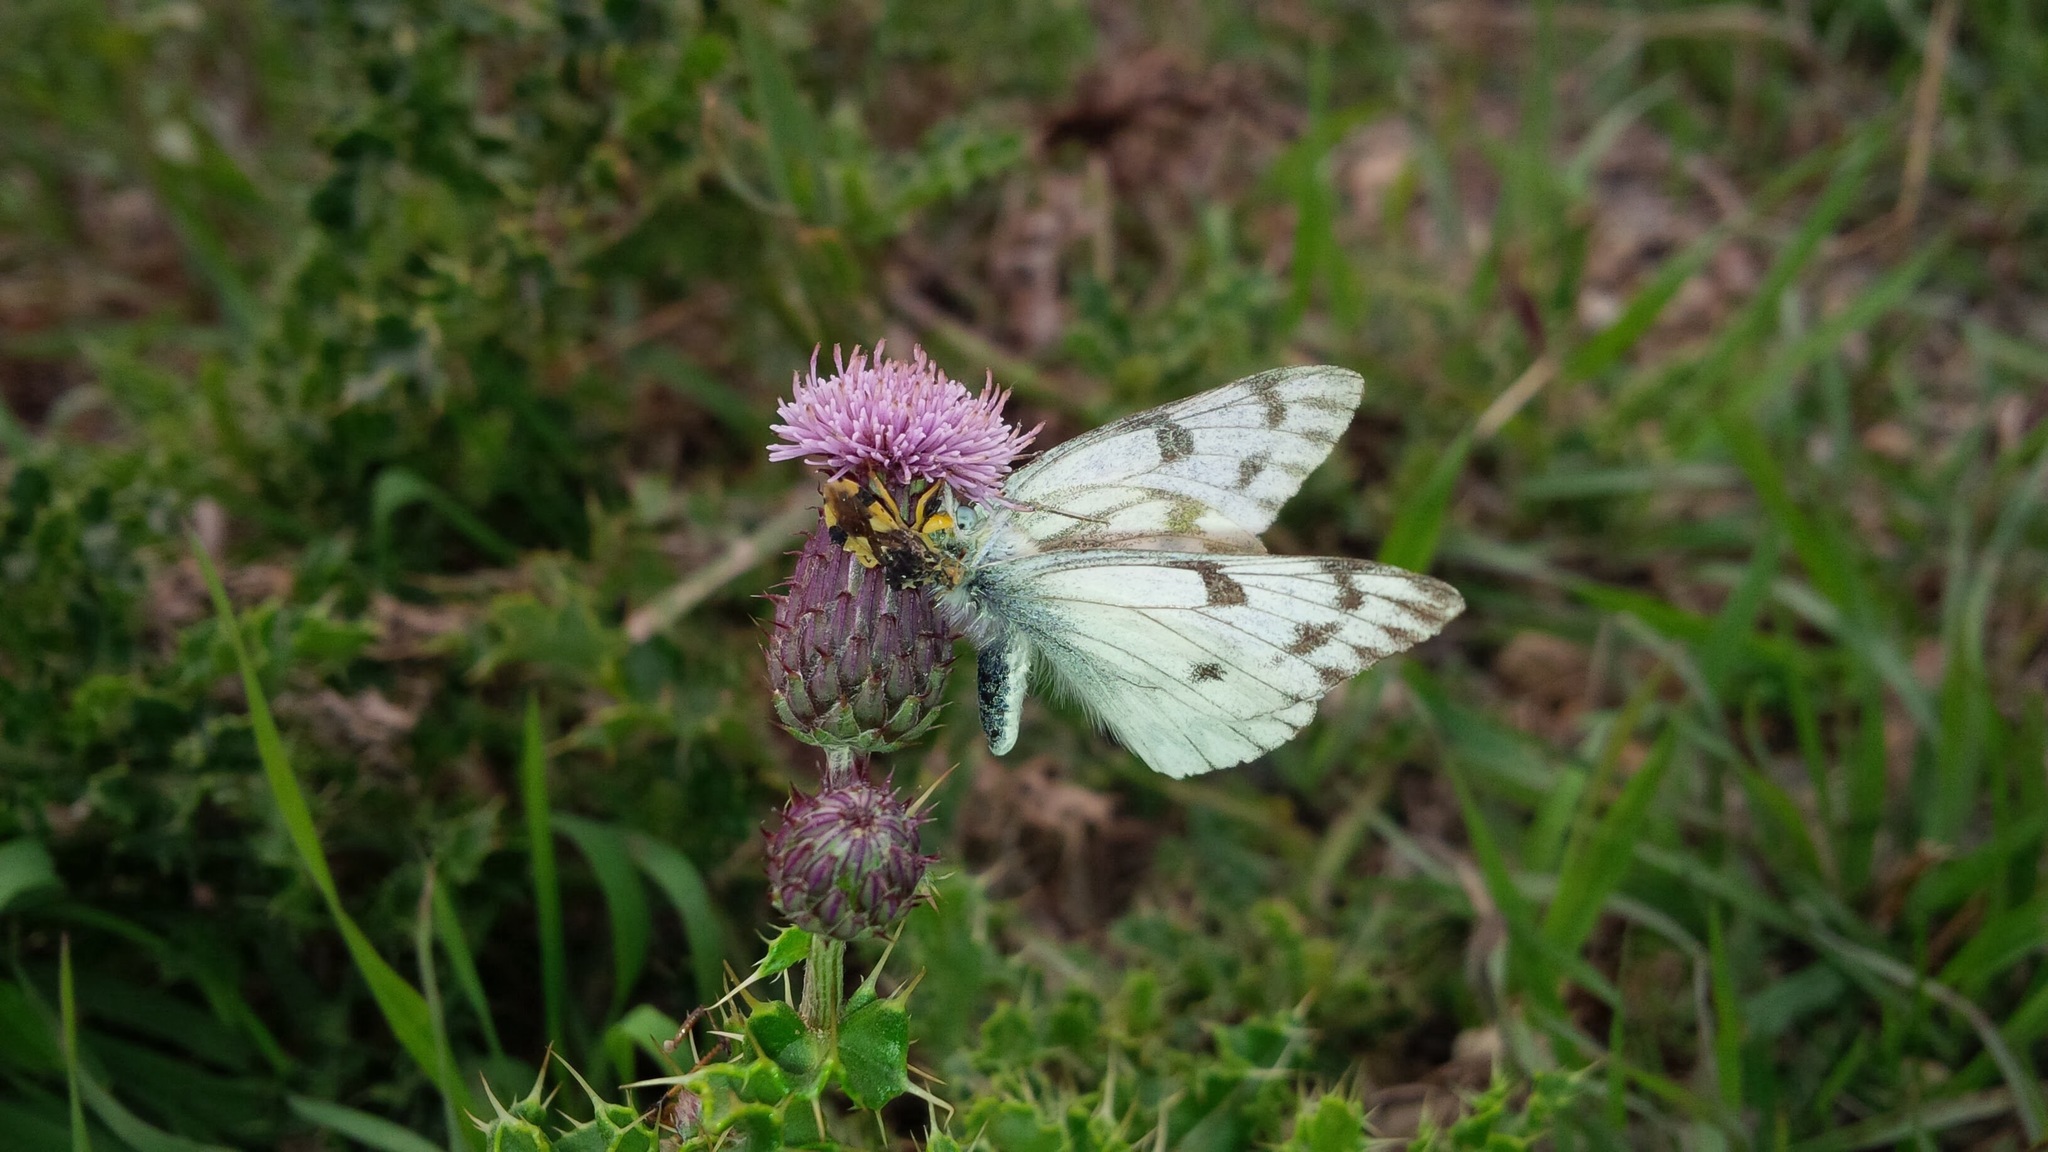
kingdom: Animalia
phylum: Arthropoda
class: Insecta
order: Lepidoptera
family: Pieridae
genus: Pontia
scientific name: Pontia occidentalis
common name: Western white
